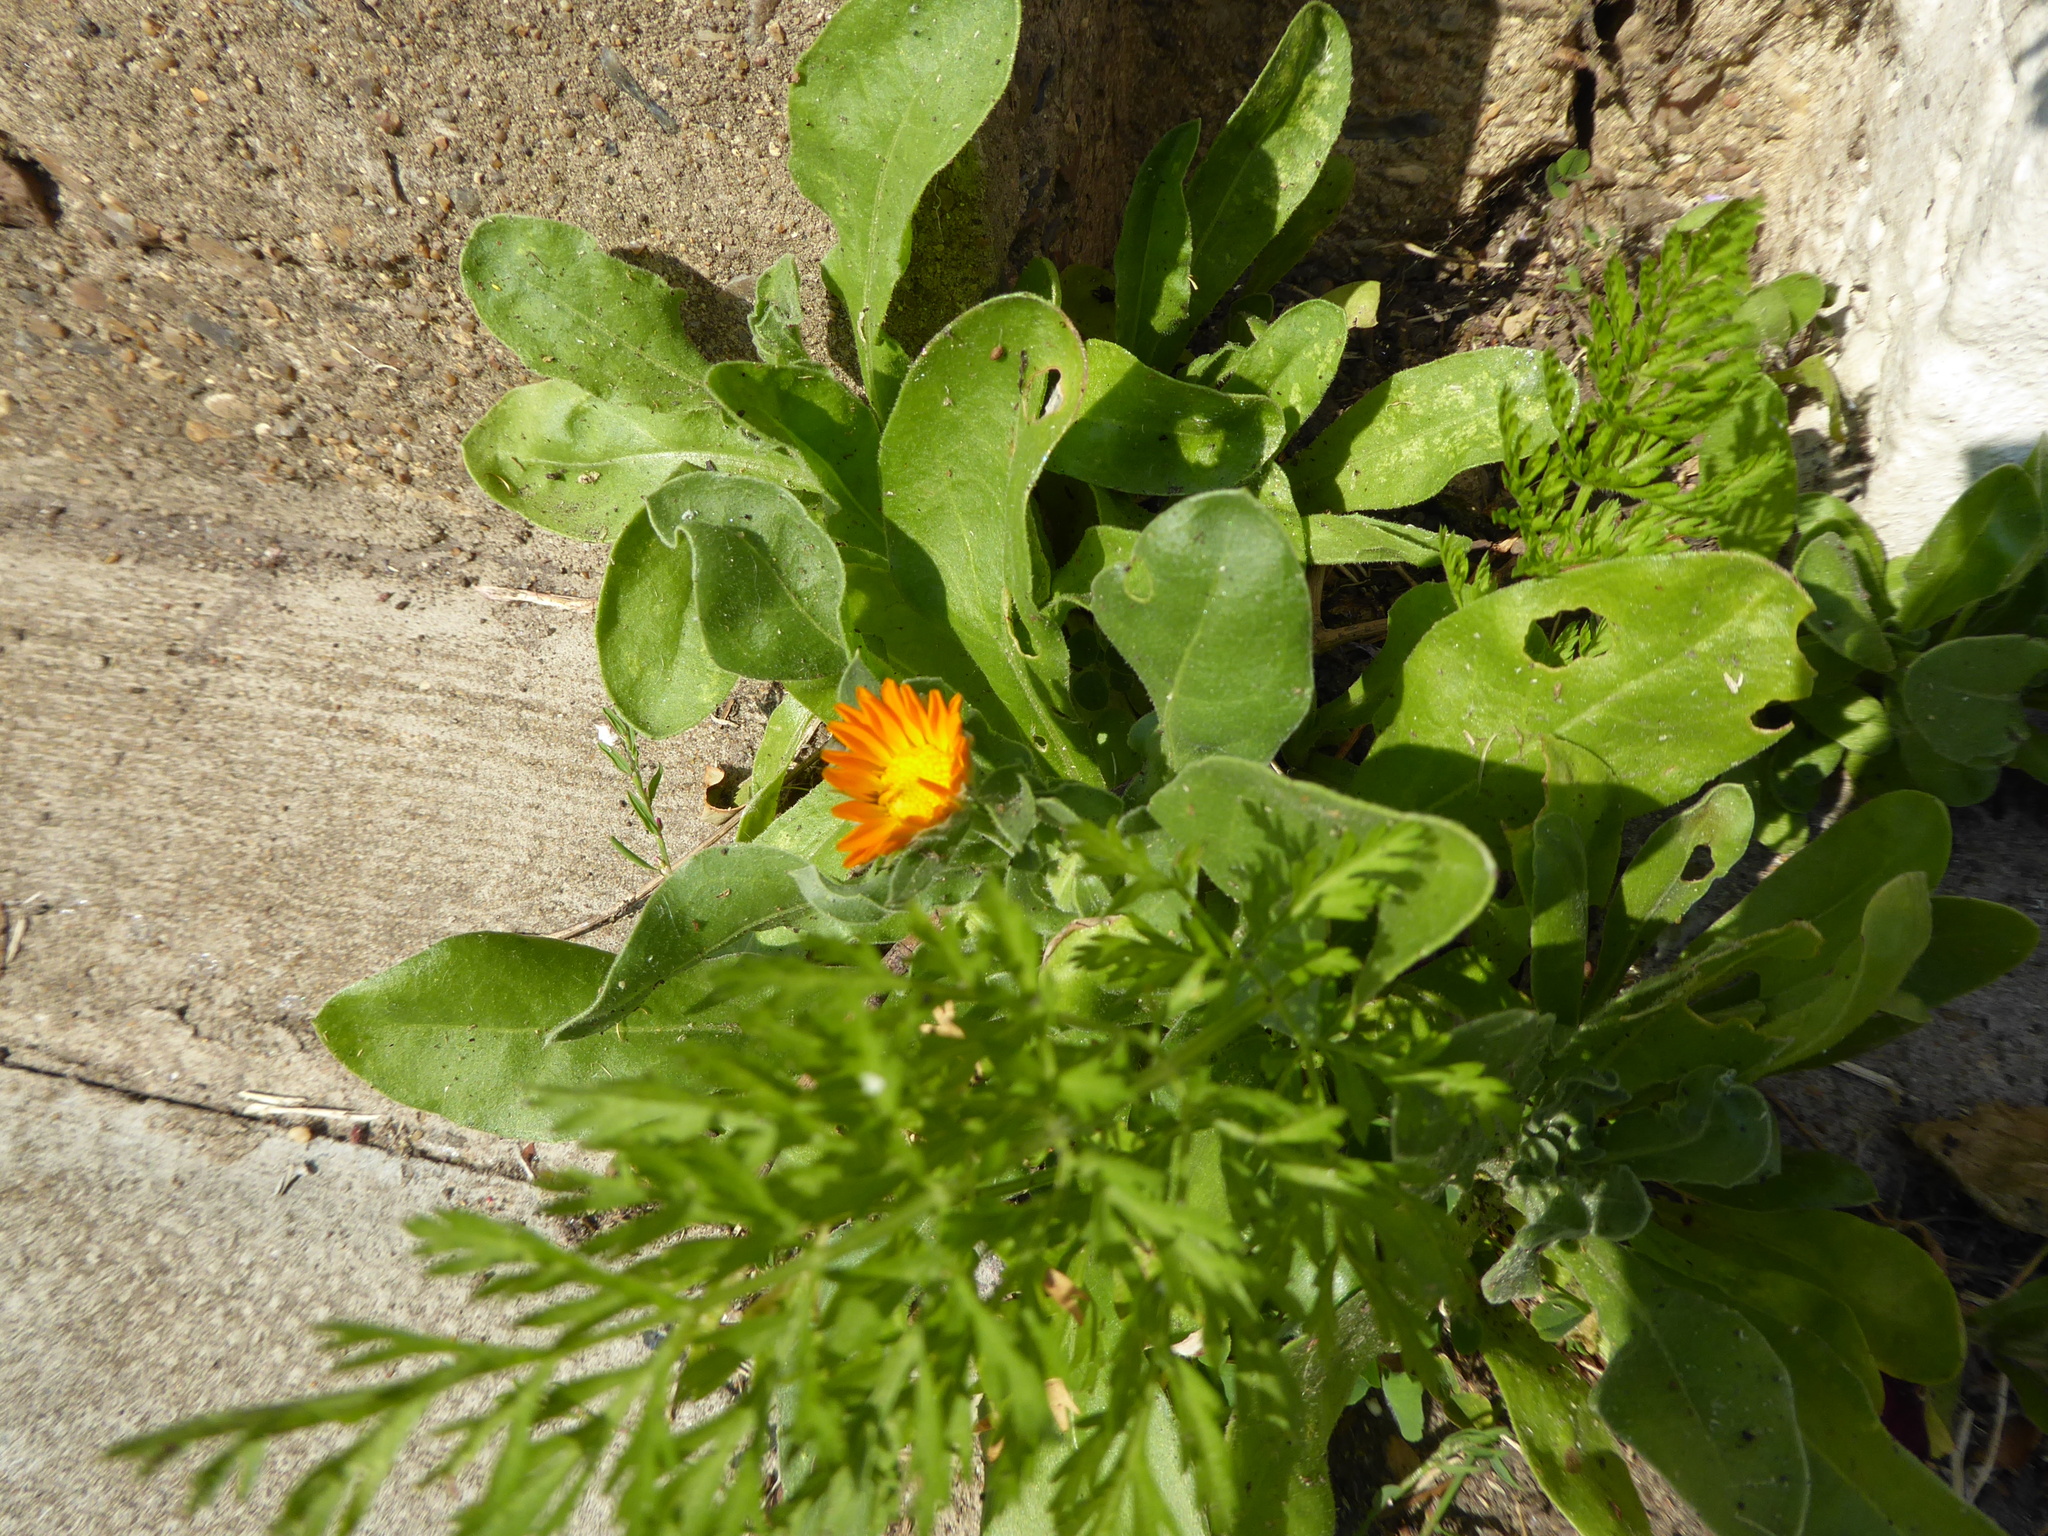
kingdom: Plantae
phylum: Tracheophyta
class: Magnoliopsida
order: Asterales
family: Asteraceae
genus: Calendula
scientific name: Calendula officinalis
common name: Pot marigold
